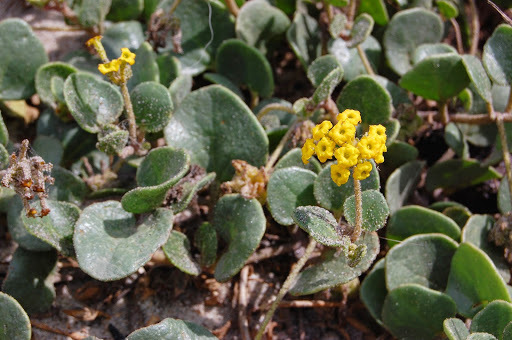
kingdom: Plantae
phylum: Tracheophyta
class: Magnoliopsida
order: Caryophyllales
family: Nyctaginaceae
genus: Abronia
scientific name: Abronia latifolia
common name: Yellow sand-verbena
